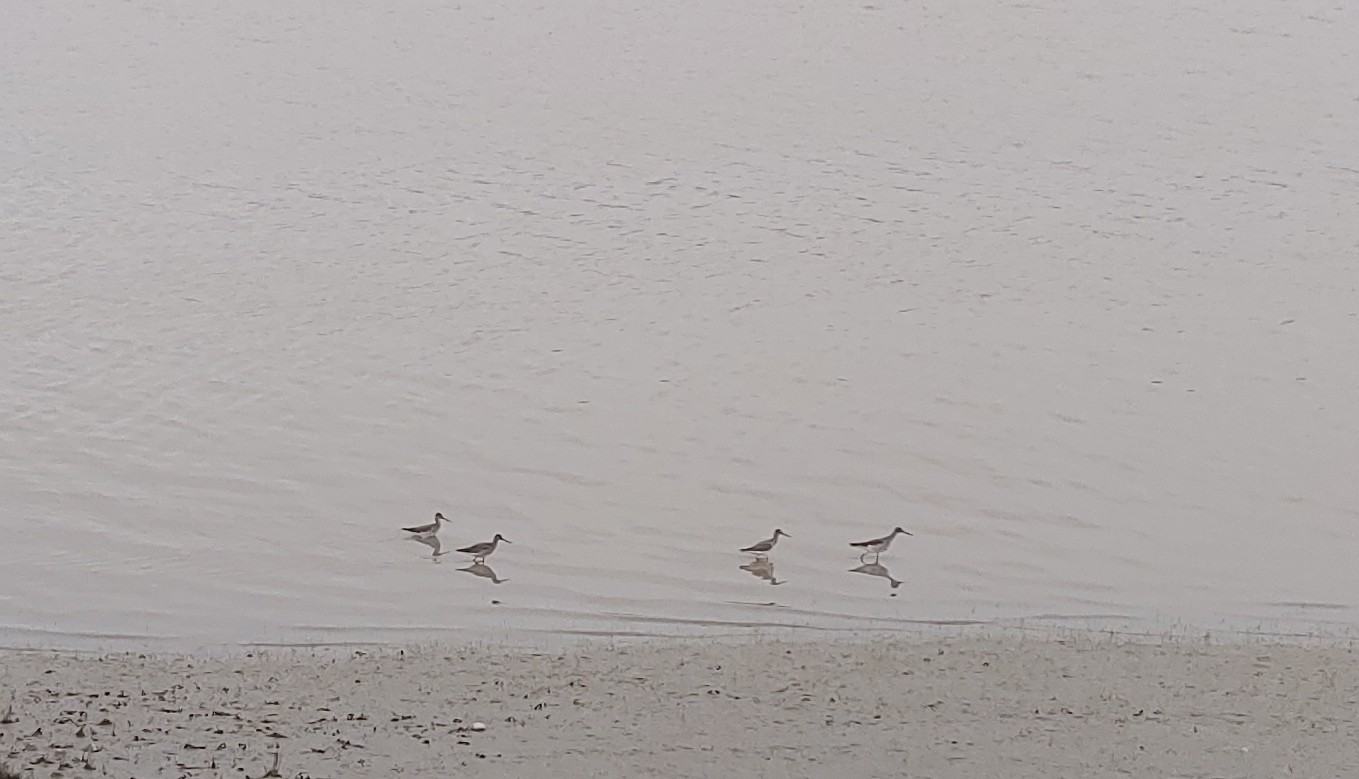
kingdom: Animalia
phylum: Chordata
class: Aves
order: Charadriiformes
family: Scolopacidae
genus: Tringa
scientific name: Tringa melanoleuca
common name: Greater yellowlegs
